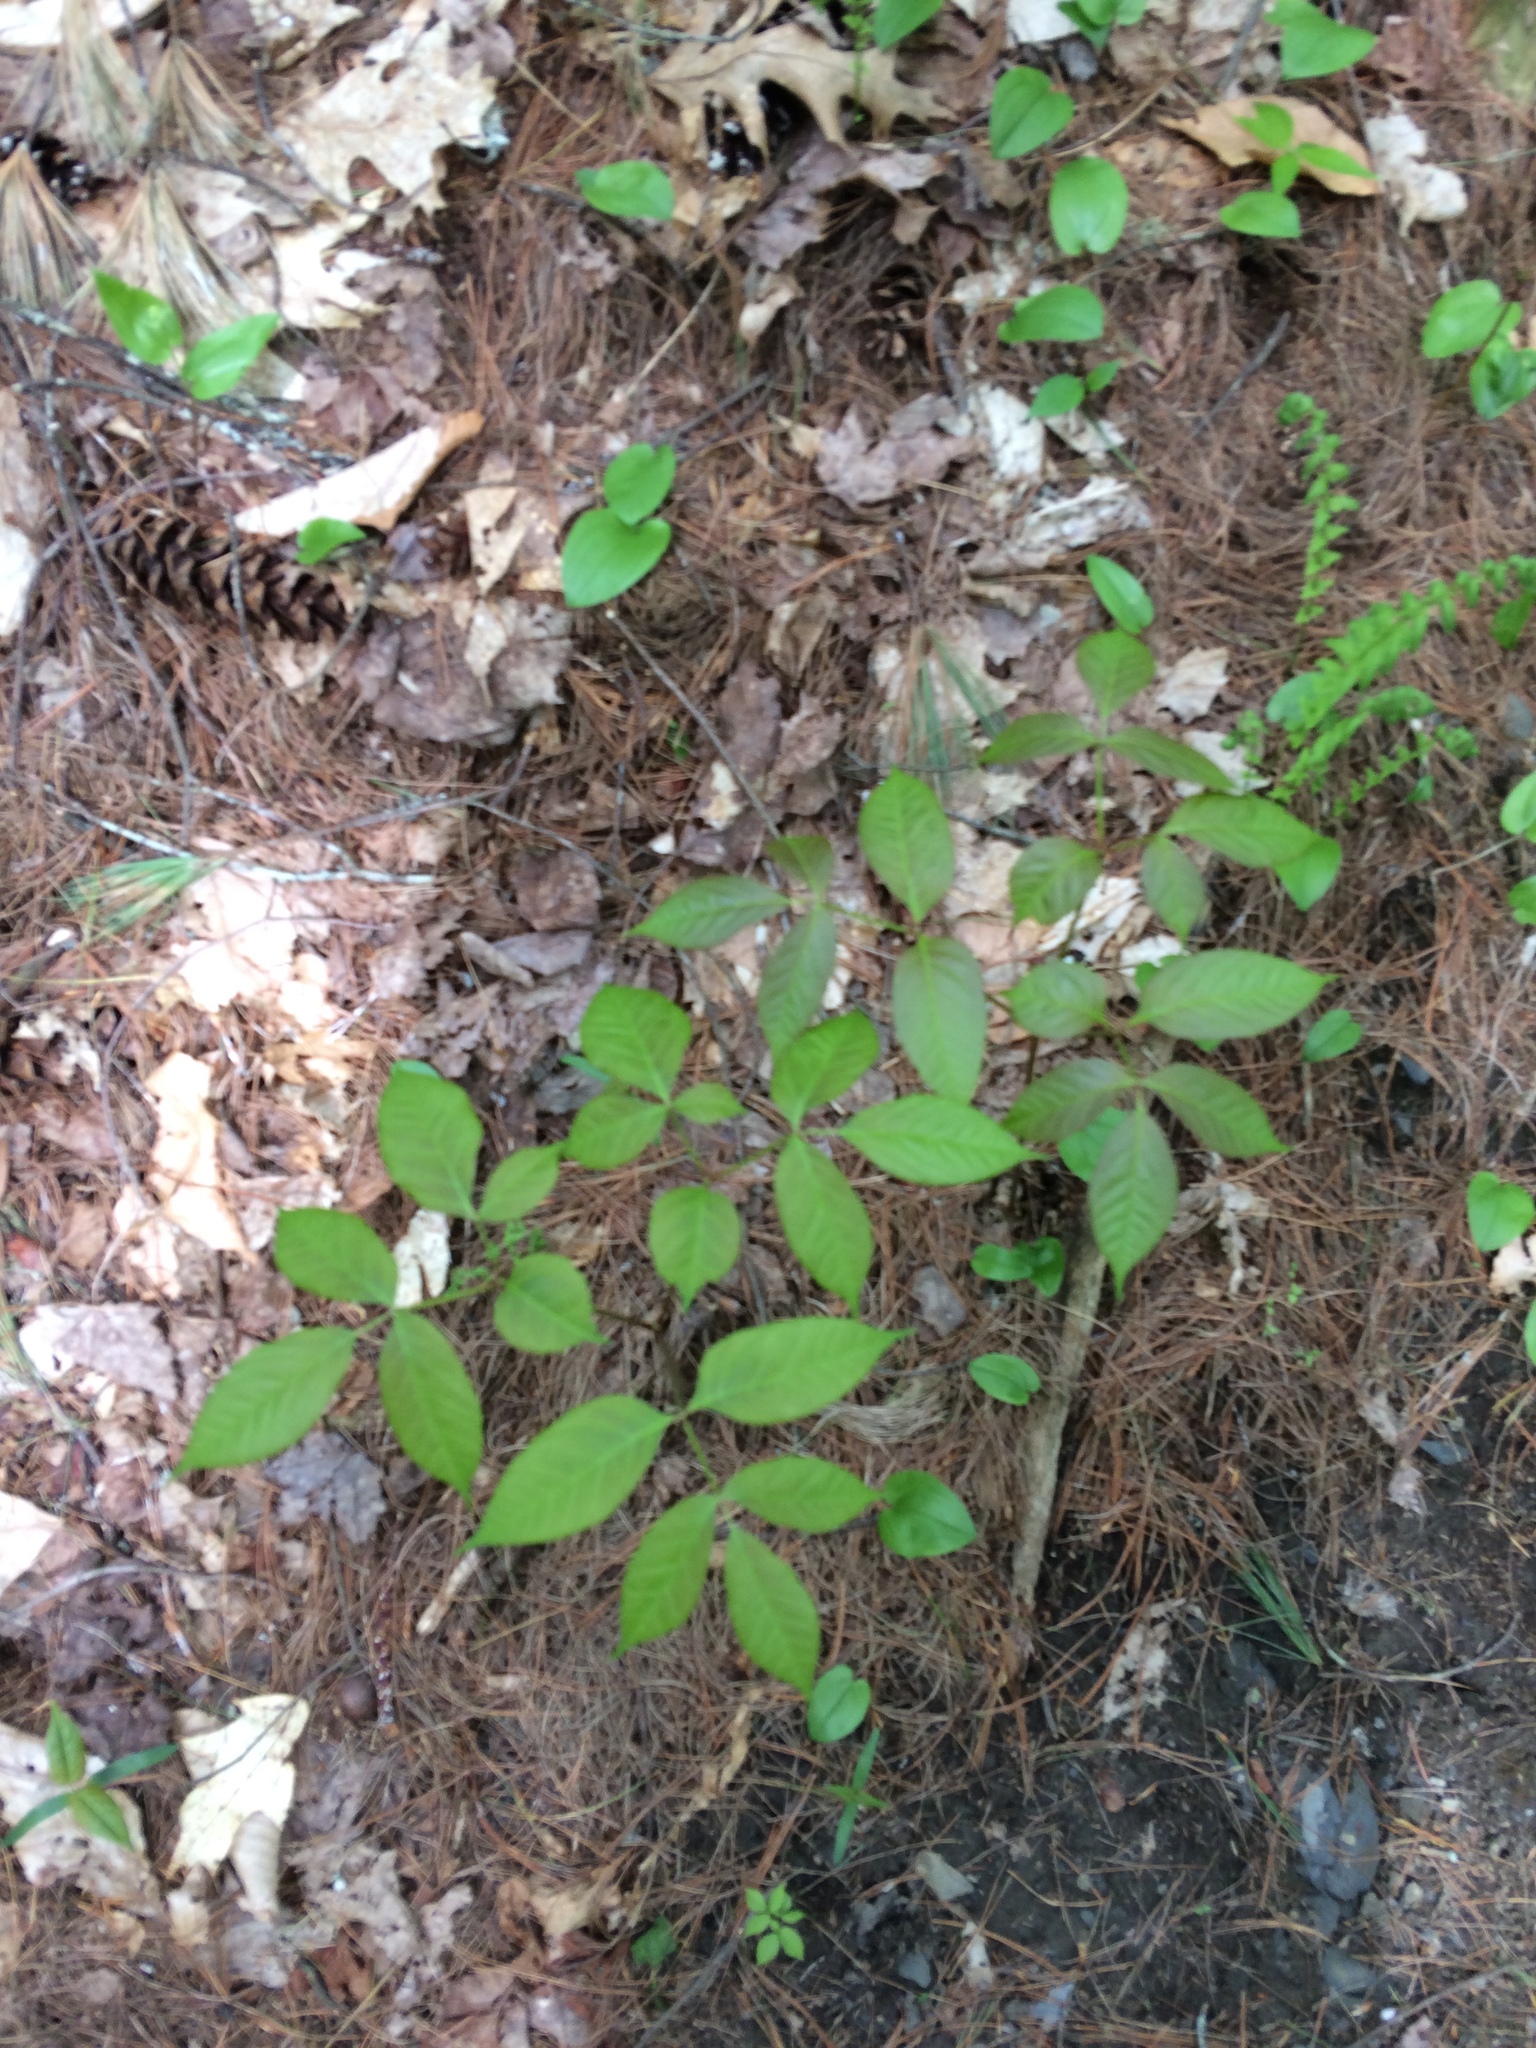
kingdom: Plantae
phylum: Tracheophyta
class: Magnoliopsida
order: Apiales
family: Araliaceae
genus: Aralia
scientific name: Aralia nudicaulis
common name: Wild sarsaparilla
